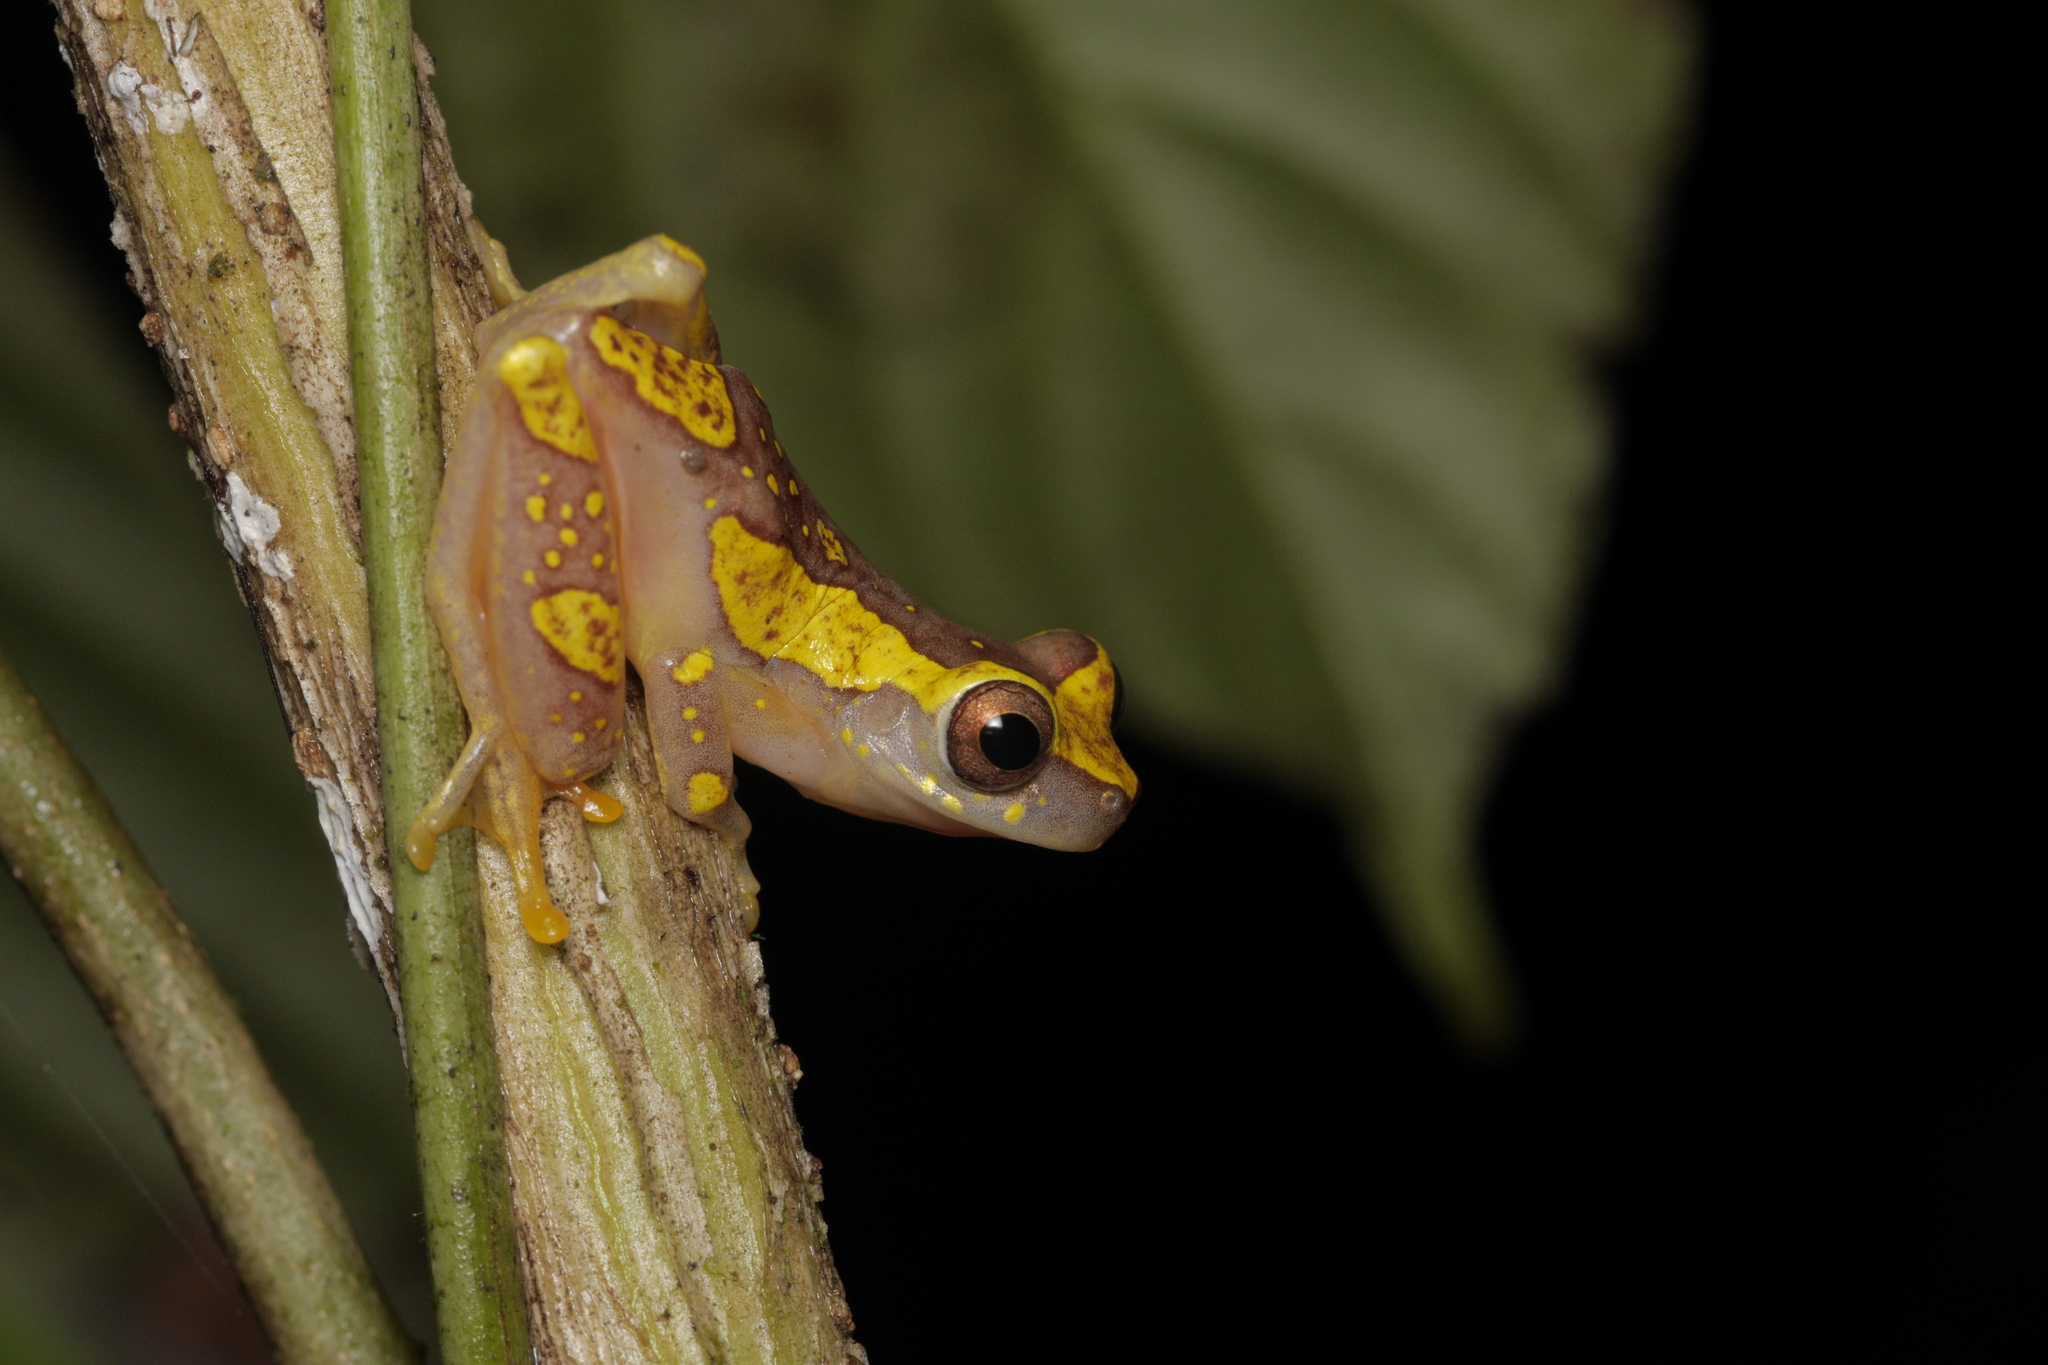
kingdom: Animalia
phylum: Chordata
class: Amphibia
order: Anura
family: Hylidae
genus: Dendropsophus
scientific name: Dendropsophus ebraccatus
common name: Hourglass treefrog
